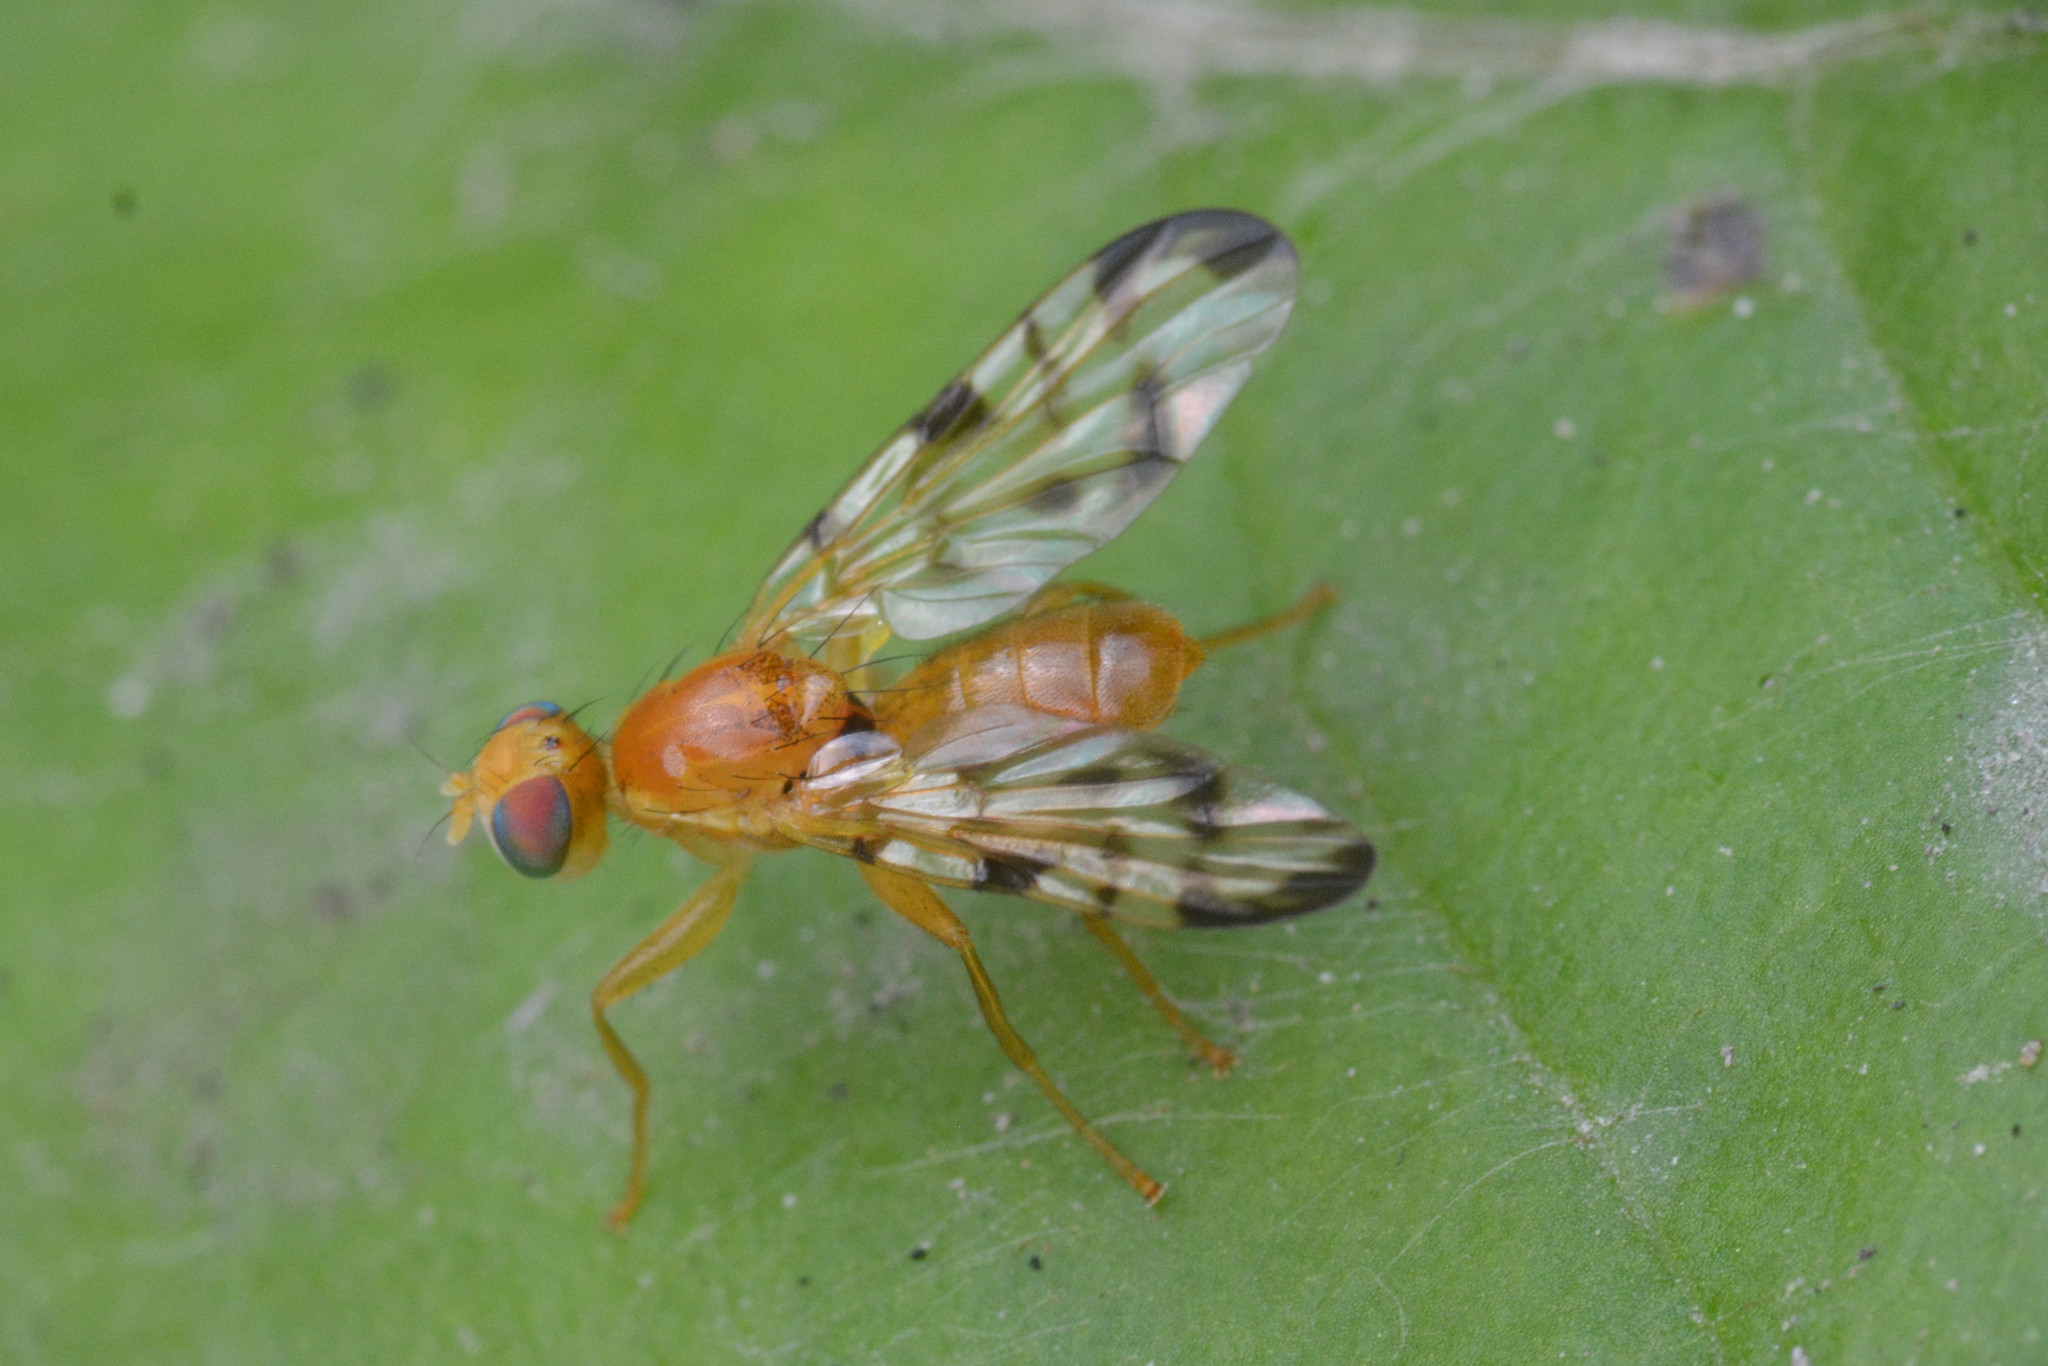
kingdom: Animalia
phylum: Arthropoda
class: Insecta
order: Diptera
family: Tephritidae
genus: Acidia
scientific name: Acidia cognata
